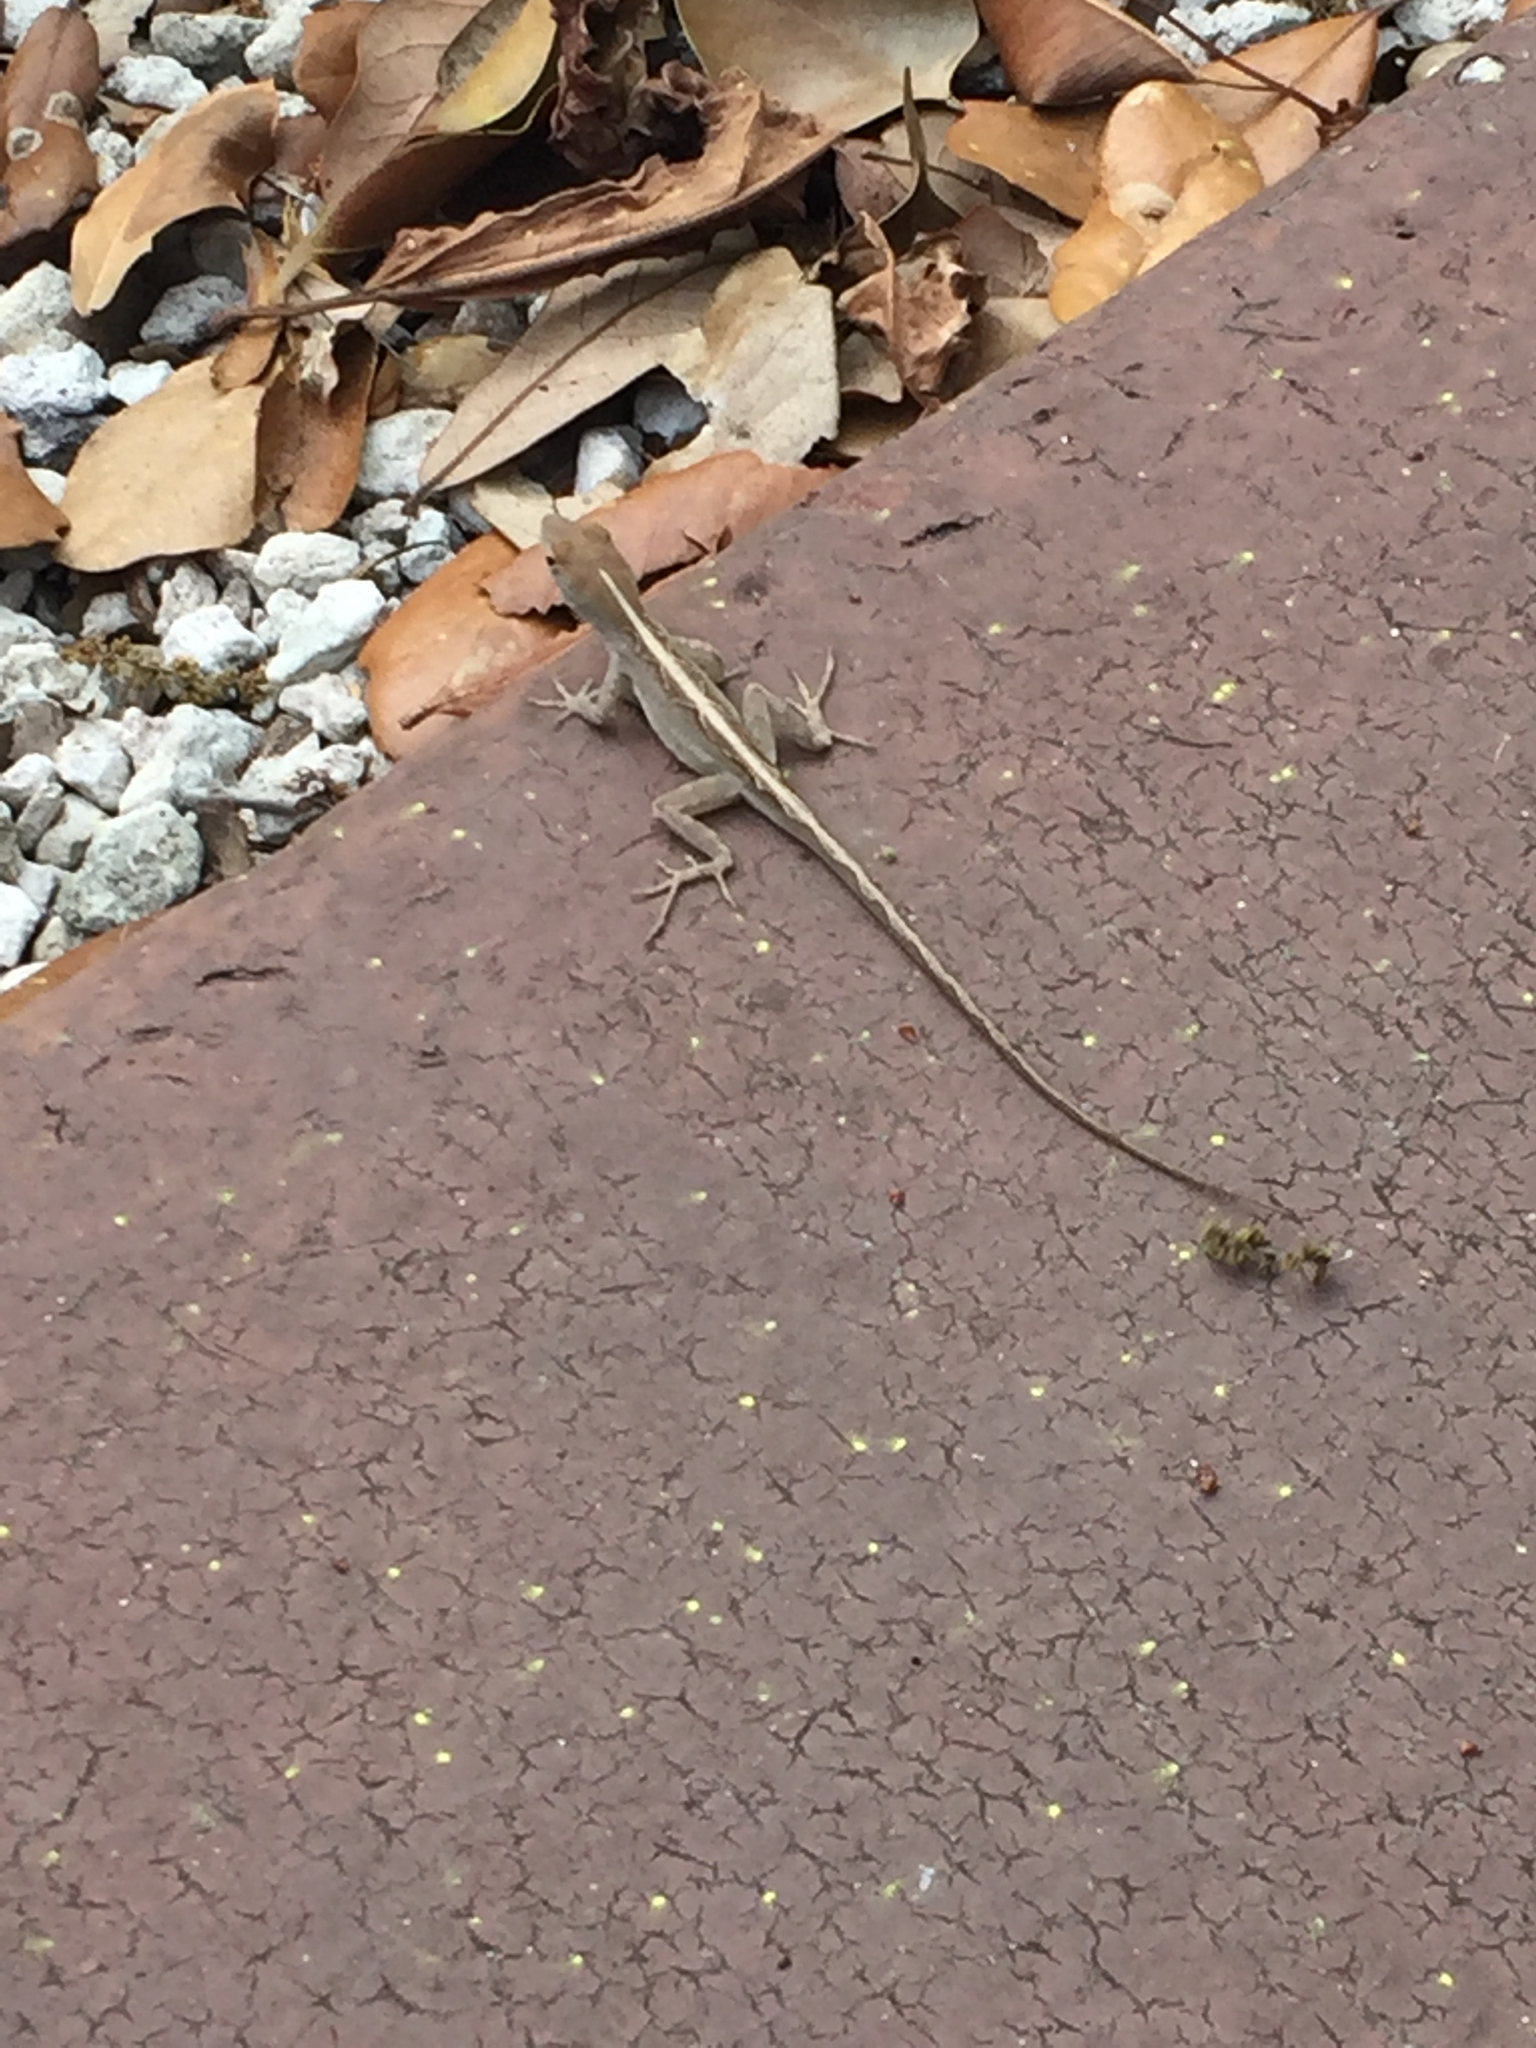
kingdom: Animalia
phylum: Chordata
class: Squamata
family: Dactyloidae
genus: Anolis
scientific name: Anolis sagrei
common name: Brown anole
